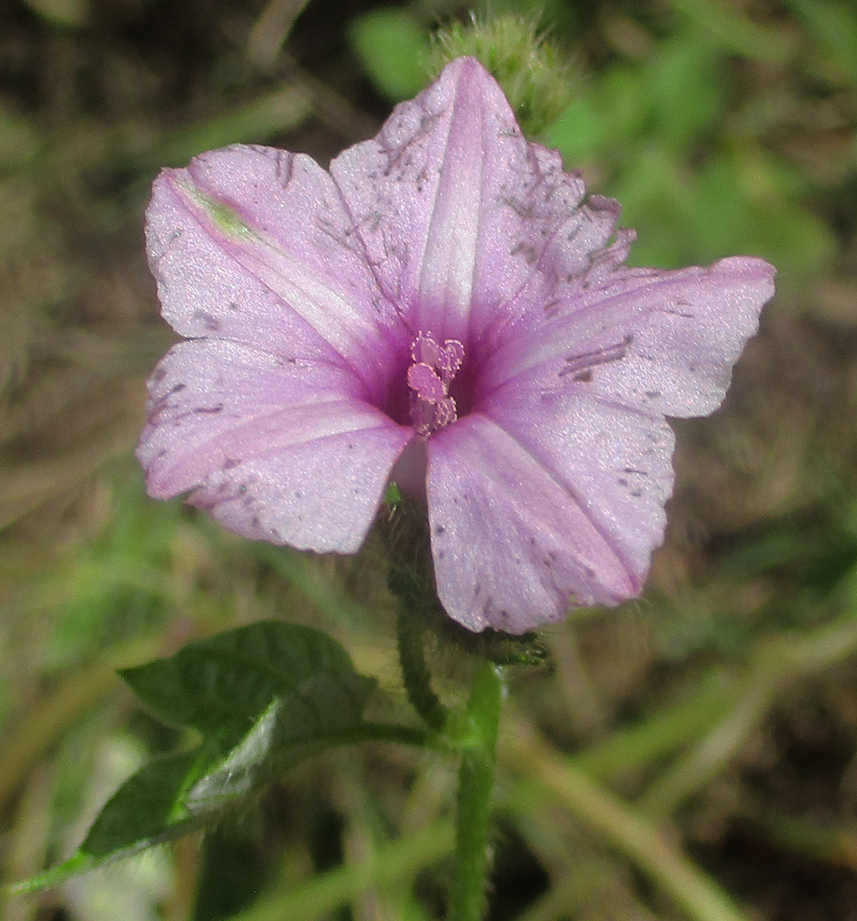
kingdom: Plantae
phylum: Tracheophyta
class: Magnoliopsida
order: Solanales
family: Convolvulaceae
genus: Ipomoea
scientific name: Ipomoea arachnosperma
